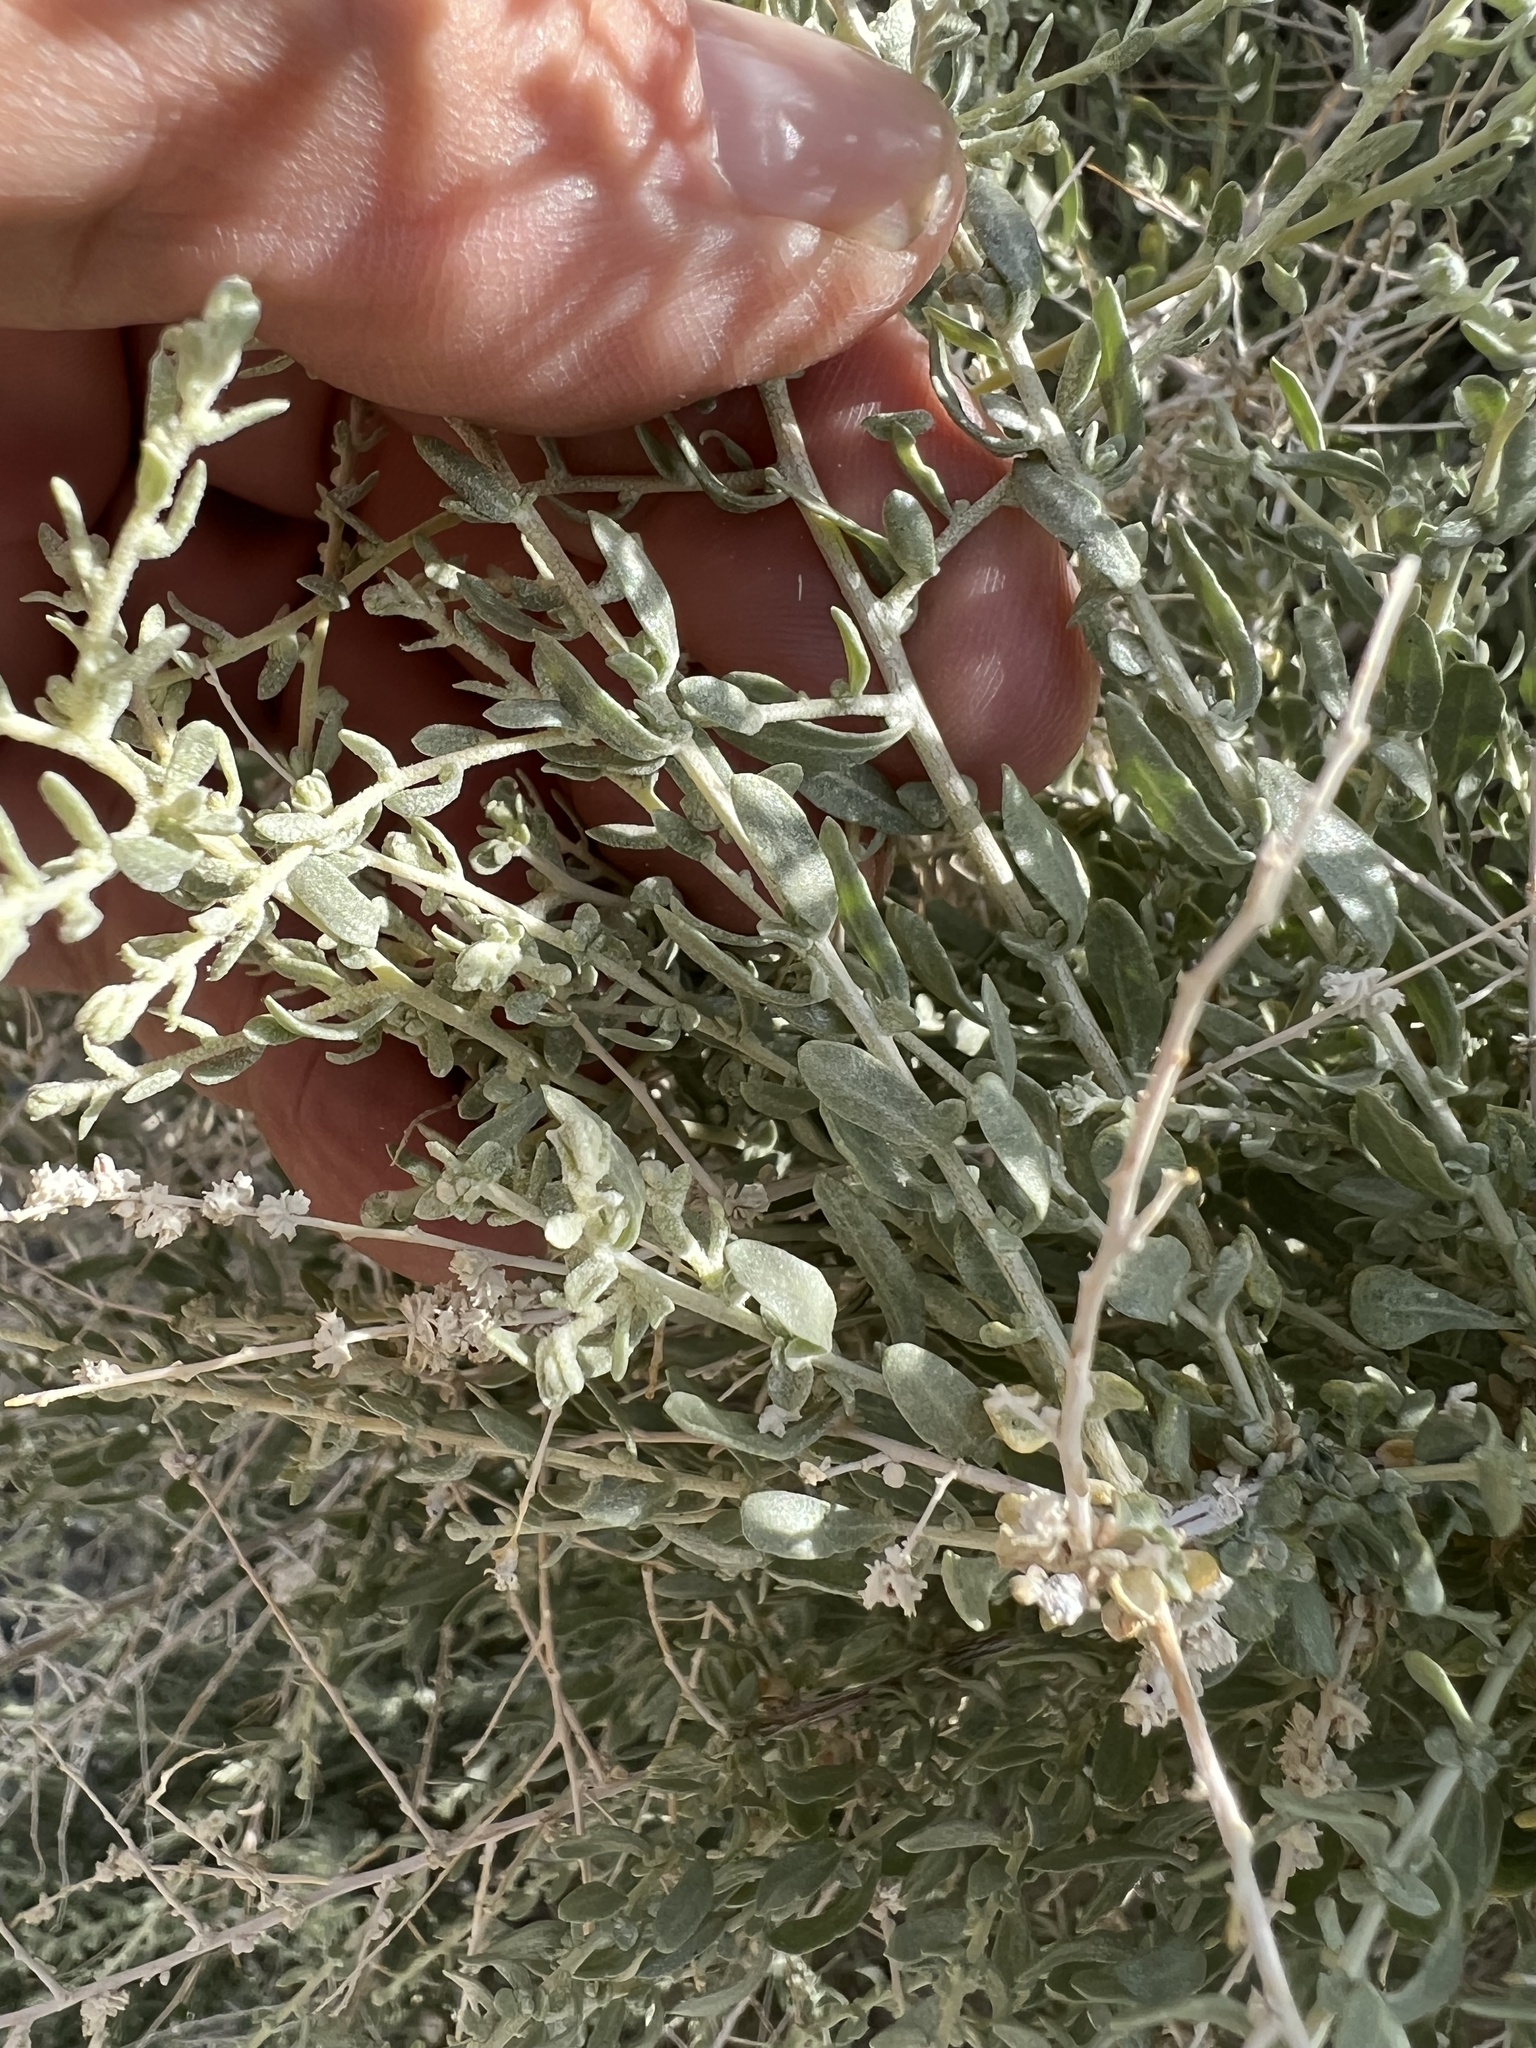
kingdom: Plantae
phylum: Tracheophyta
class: Magnoliopsida
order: Caryophyllales
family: Amaranthaceae
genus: Atriplex
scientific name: Atriplex polycarpa
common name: Desert saltbush
